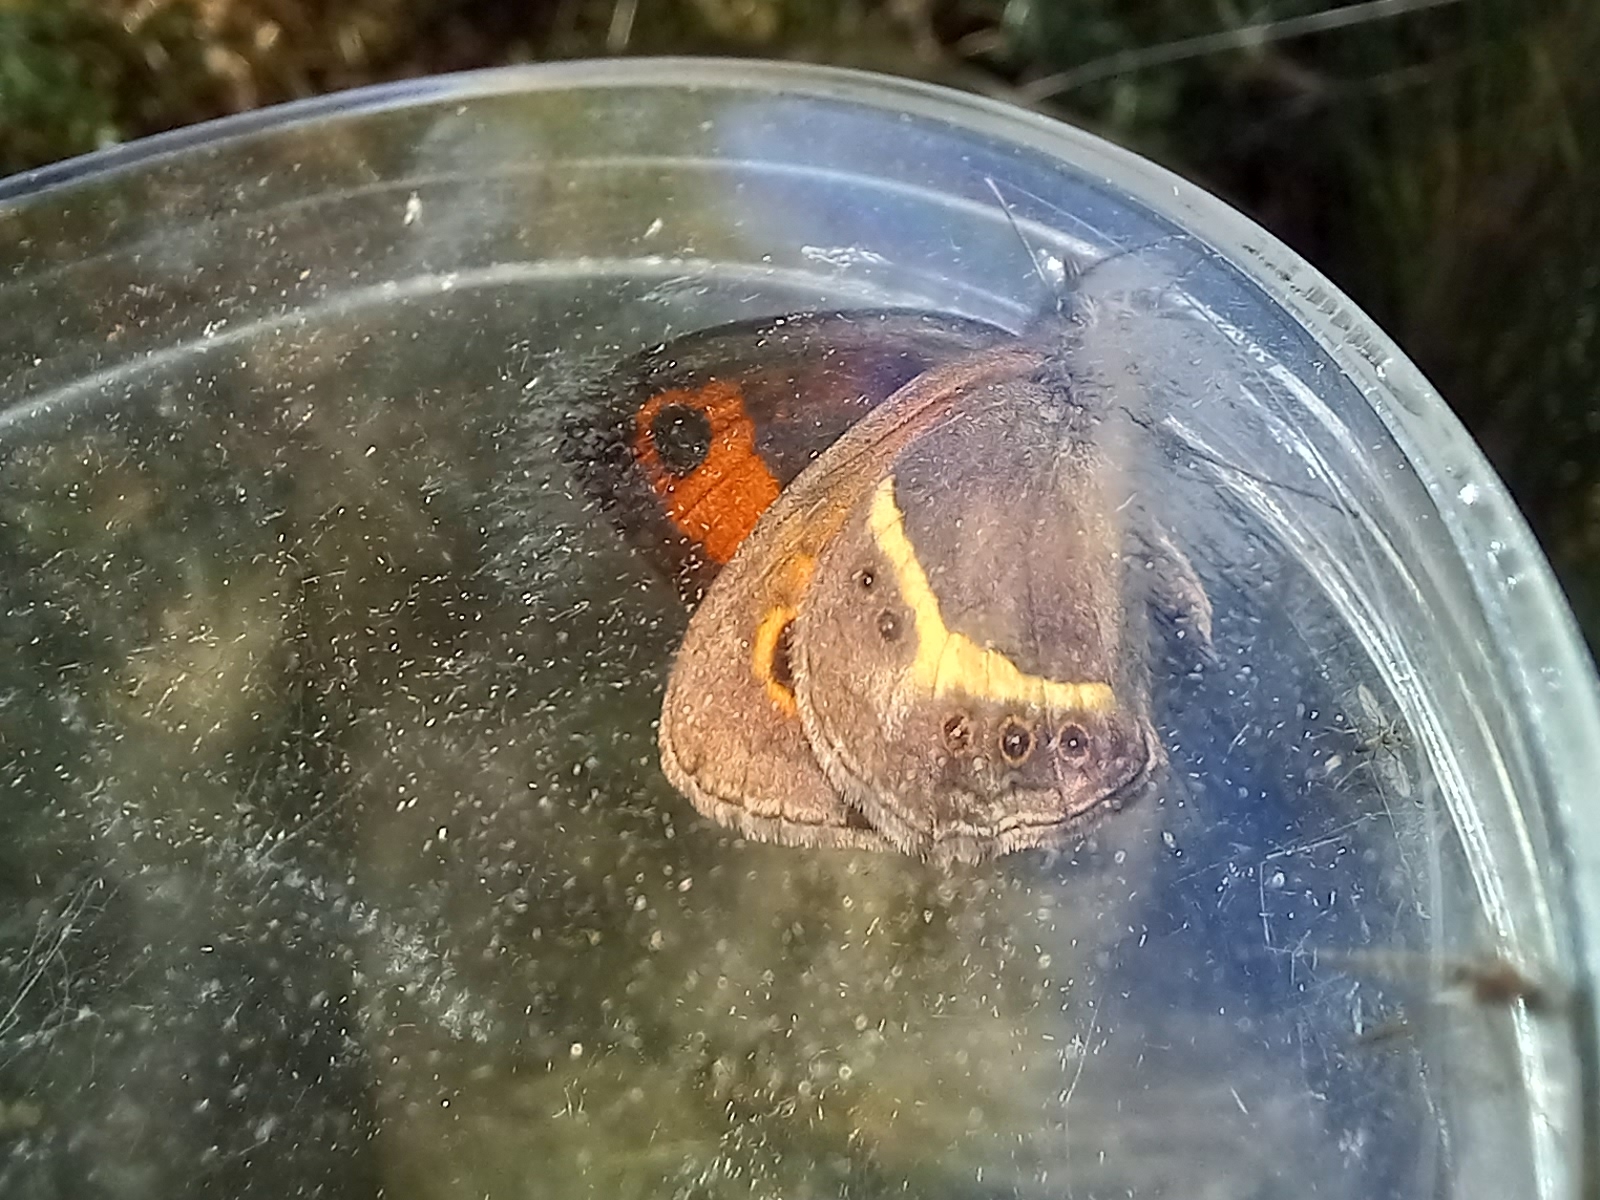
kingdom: Animalia
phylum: Arthropoda
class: Insecta
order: Lepidoptera
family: Nymphalidae
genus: Pyronia
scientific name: Pyronia bathseba
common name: Spanish gatekeeper
